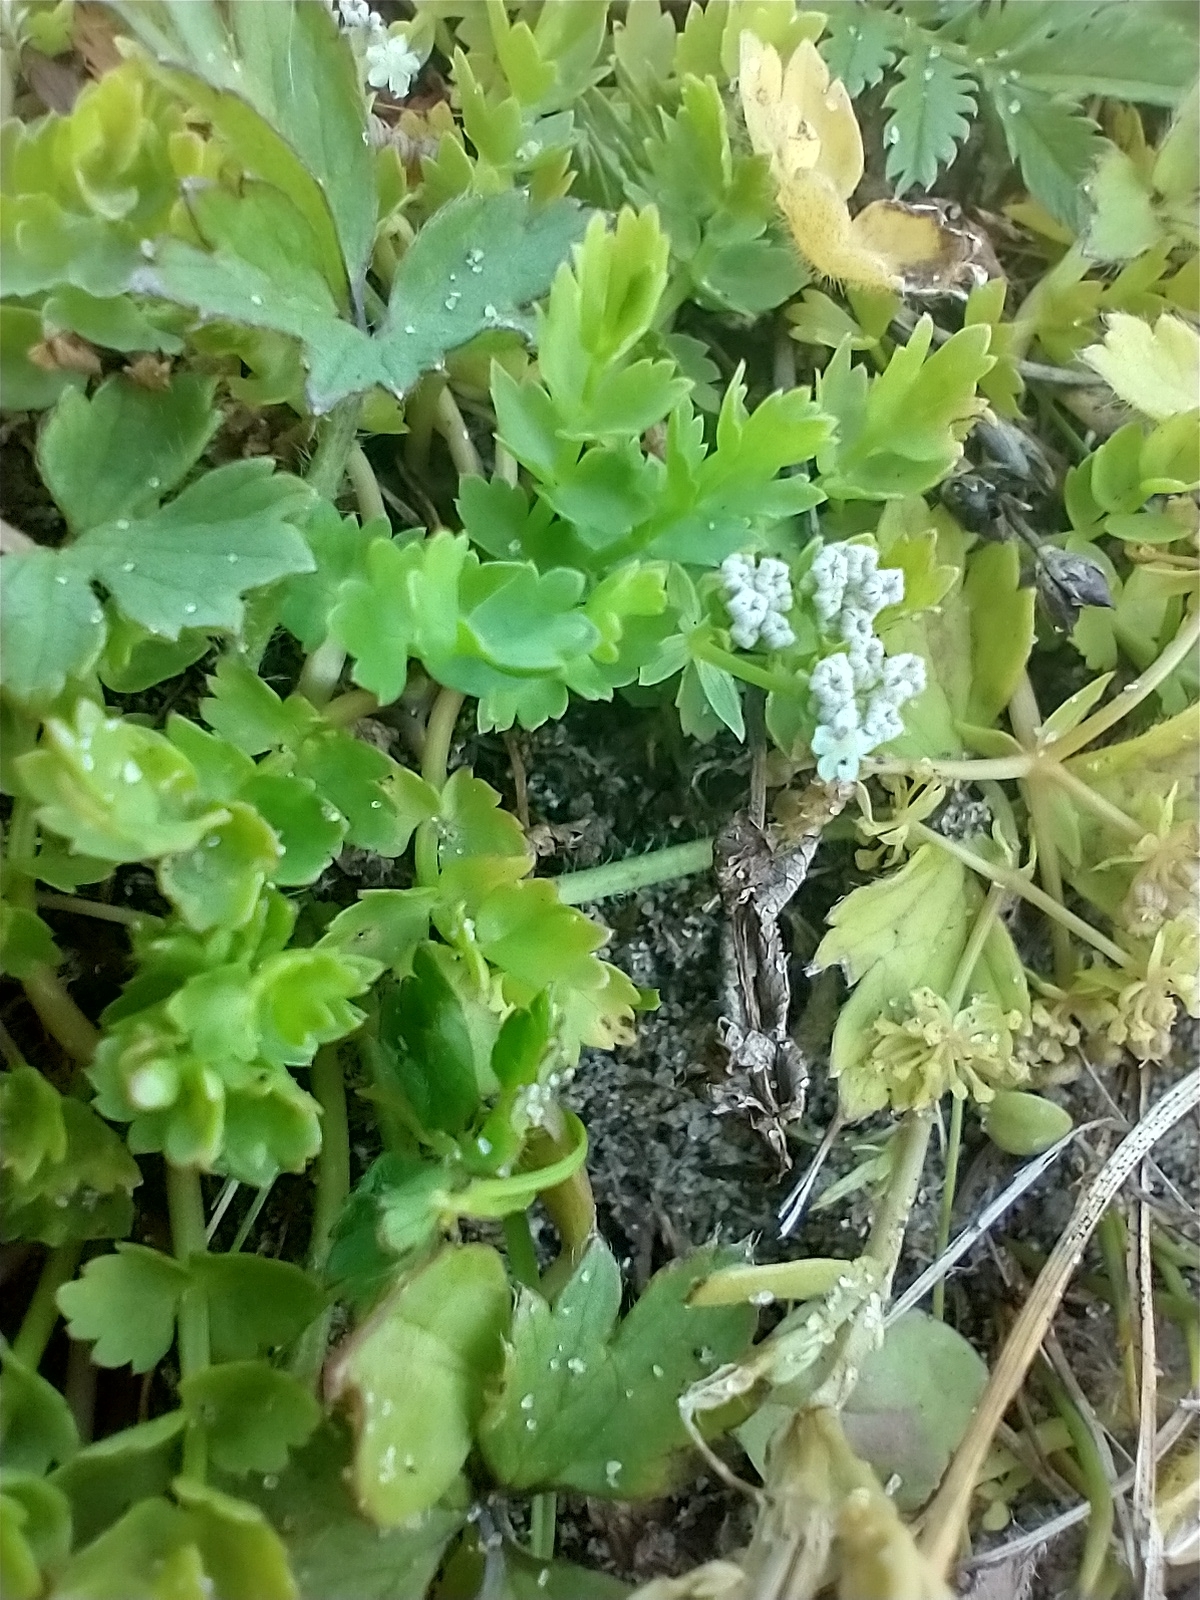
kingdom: Plantae
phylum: Tracheophyta
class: Magnoliopsida
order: Apiales
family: Apiaceae
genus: Helosciadium
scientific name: Helosciadium repens
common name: Creeping marshwort
